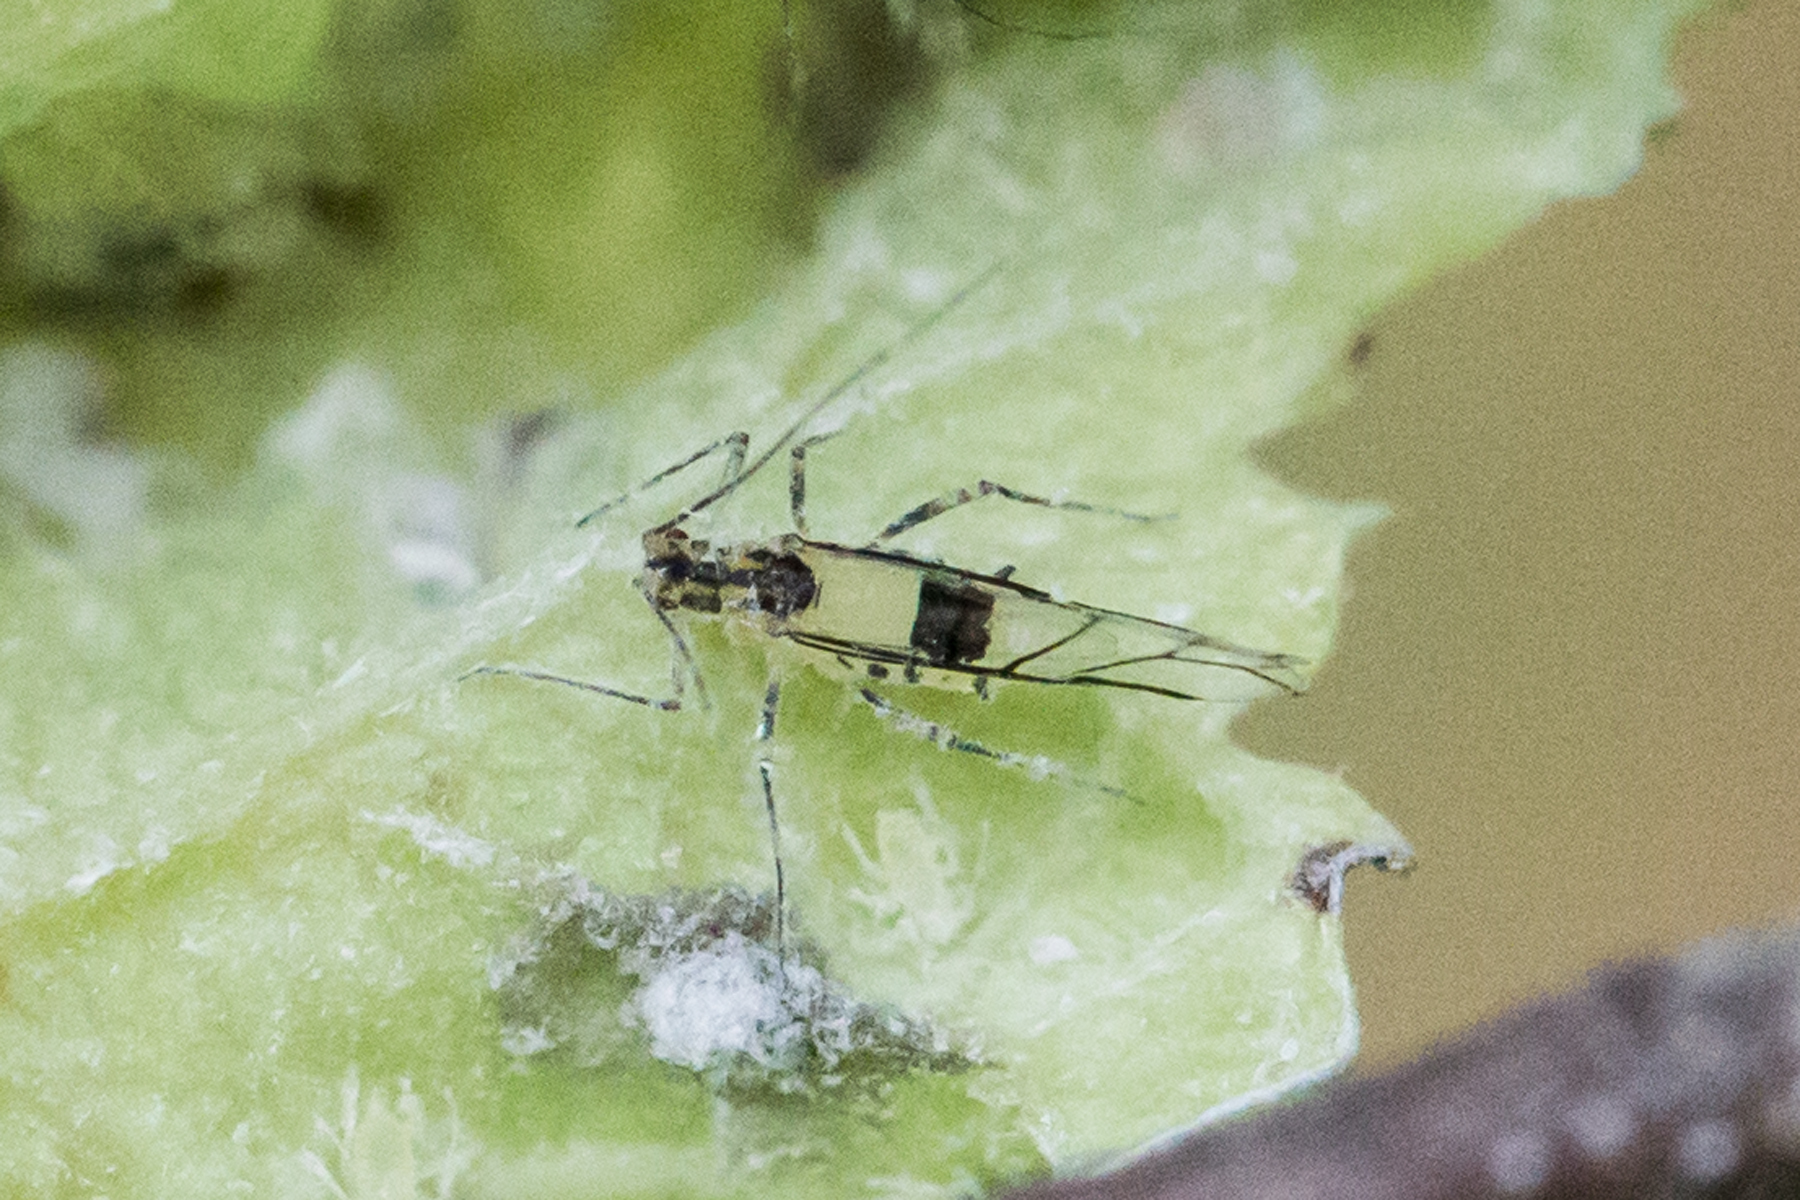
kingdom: Animalia
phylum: Arthropoda
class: Insecta
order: Hemiptera
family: Aphididae
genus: Calaphis
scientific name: Calaphis neobetulella
